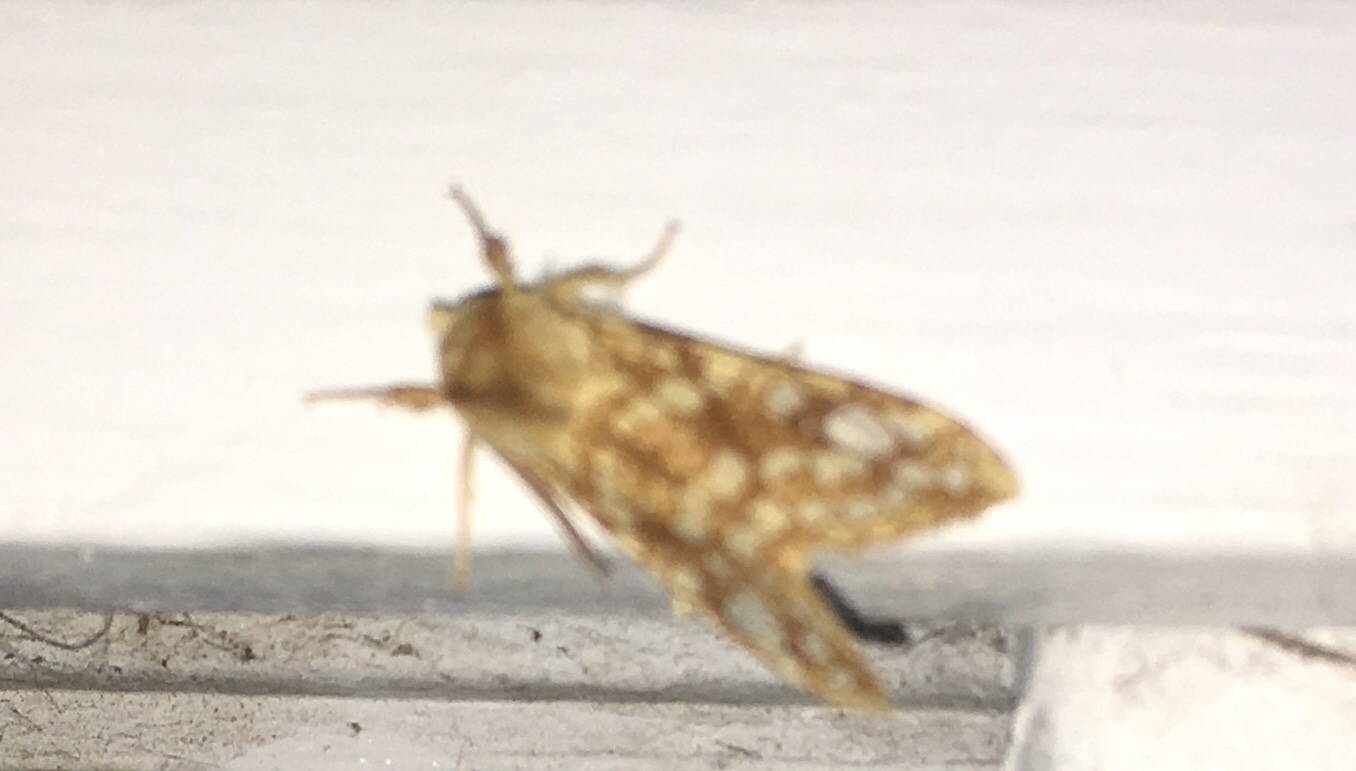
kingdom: Animalia
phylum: Arthropoda
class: Insecta
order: Lepidoptera
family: Erebidae
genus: Lophocampa
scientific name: Lophocampa caryae
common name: Hickory tussock moth
